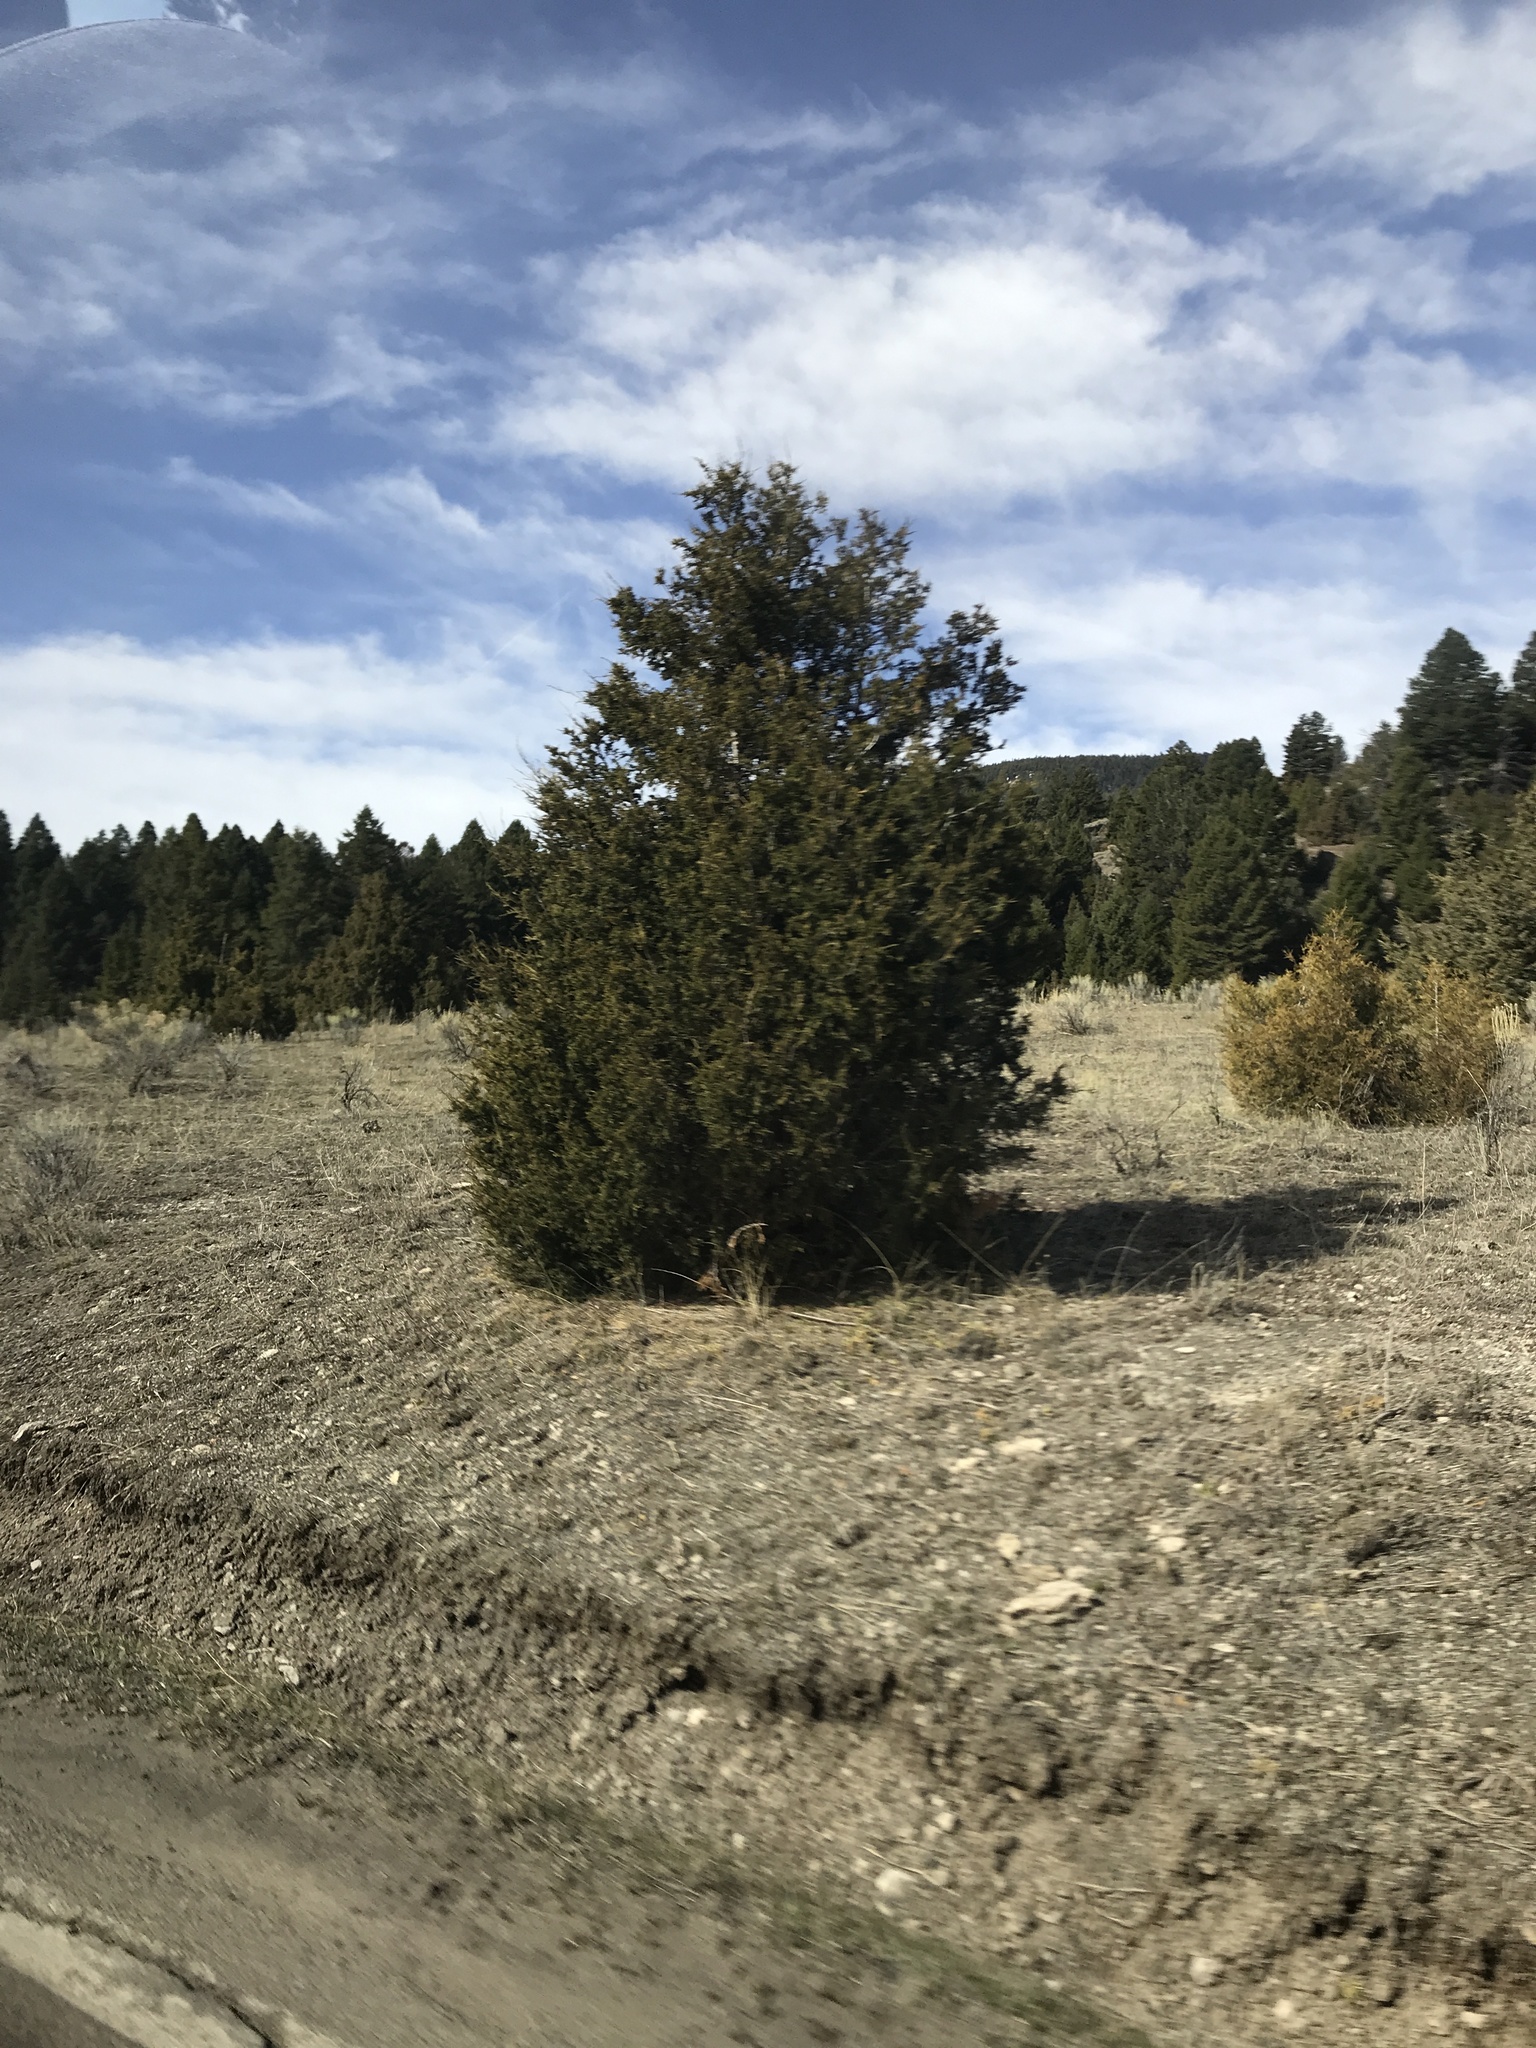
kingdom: Plantae
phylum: Tracheophyta
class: Pinopsida
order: Pinales
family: Cupressaceae
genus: Juniperus
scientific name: Juniperus scopulorum
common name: Rocky mountain juniper
